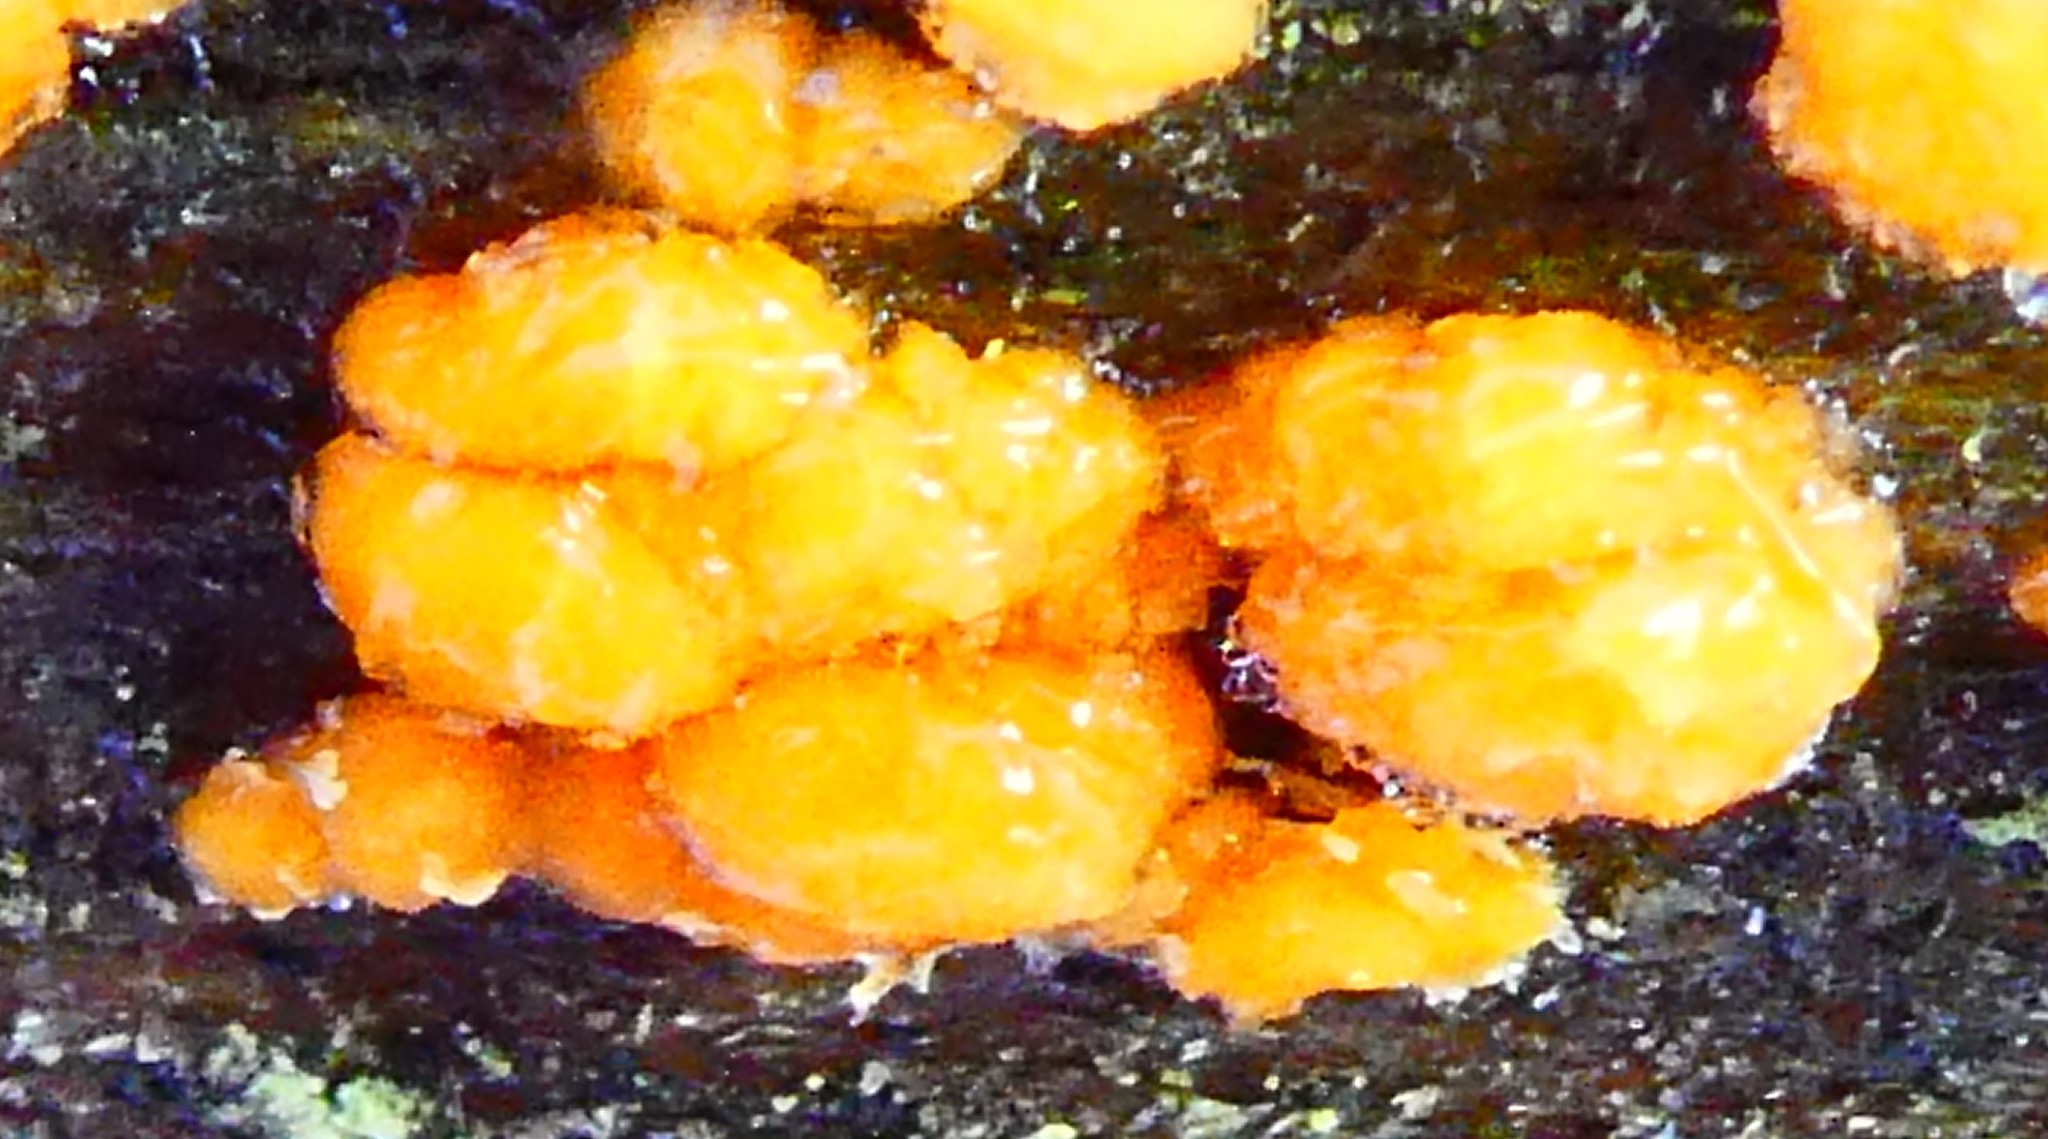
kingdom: Fungi
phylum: Basidiomycota
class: Dacrymycetes
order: Dacrymycetales
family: Dacrymycetaceae
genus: Dacrymyces
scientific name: Dacrymyces stillatus
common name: Common jelly spot
